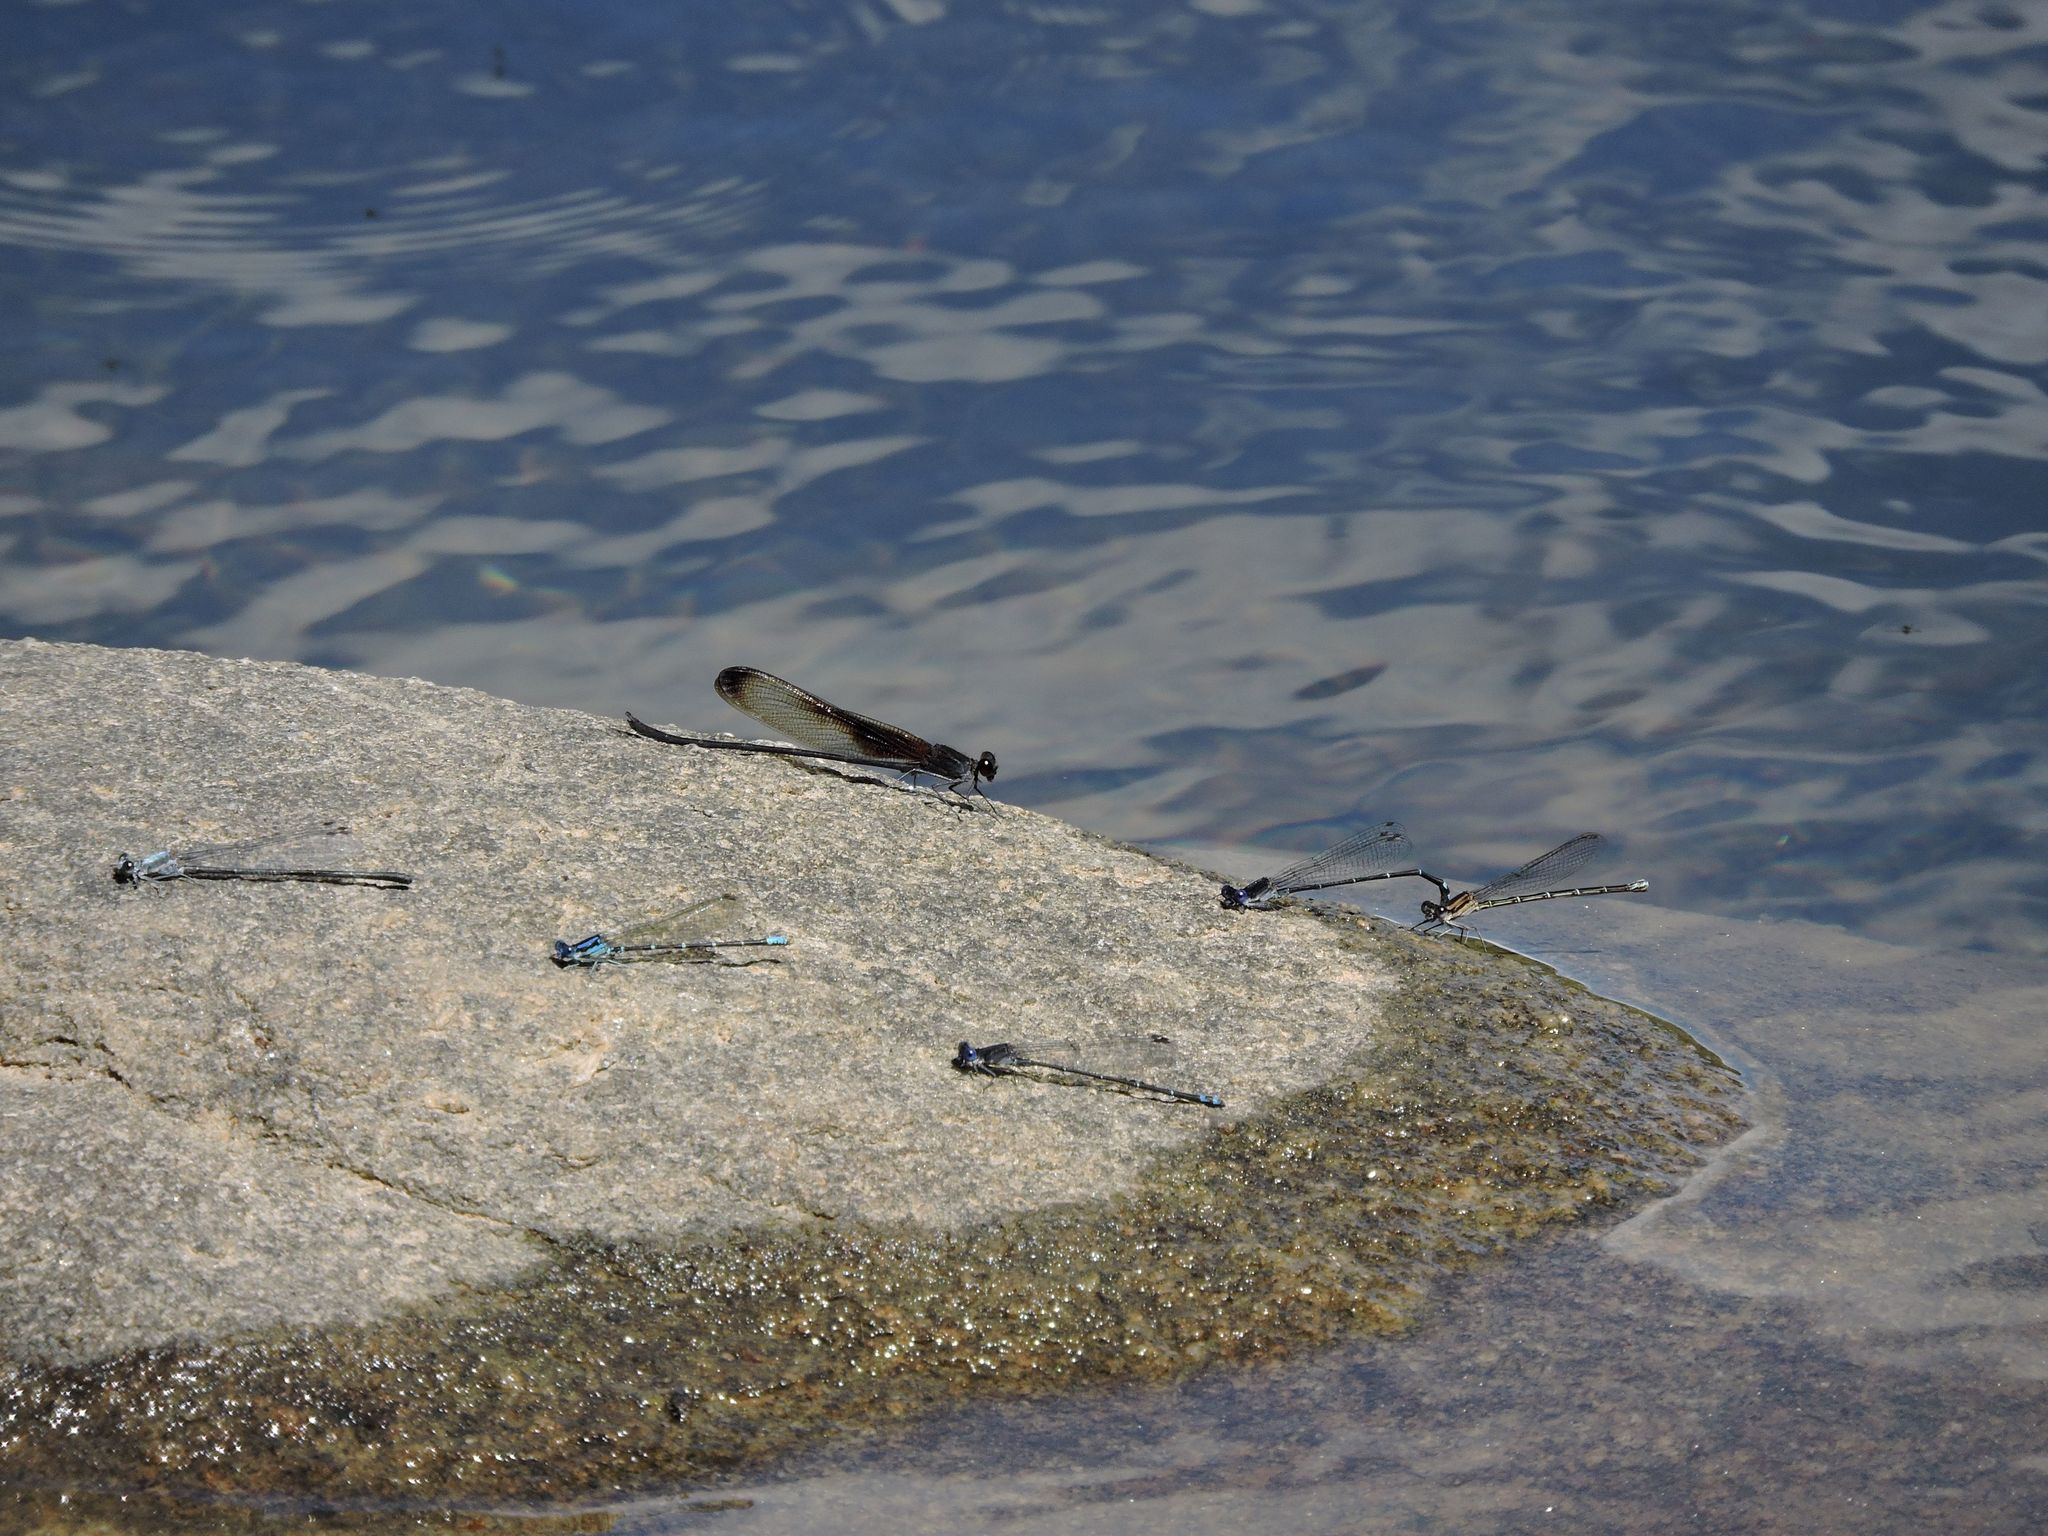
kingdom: Animalia
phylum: Arthropoda
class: Insecta
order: Odonata
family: Calopterygidae
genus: Hetaerina
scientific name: Hetaerina titia
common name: Smoky rubyspot
